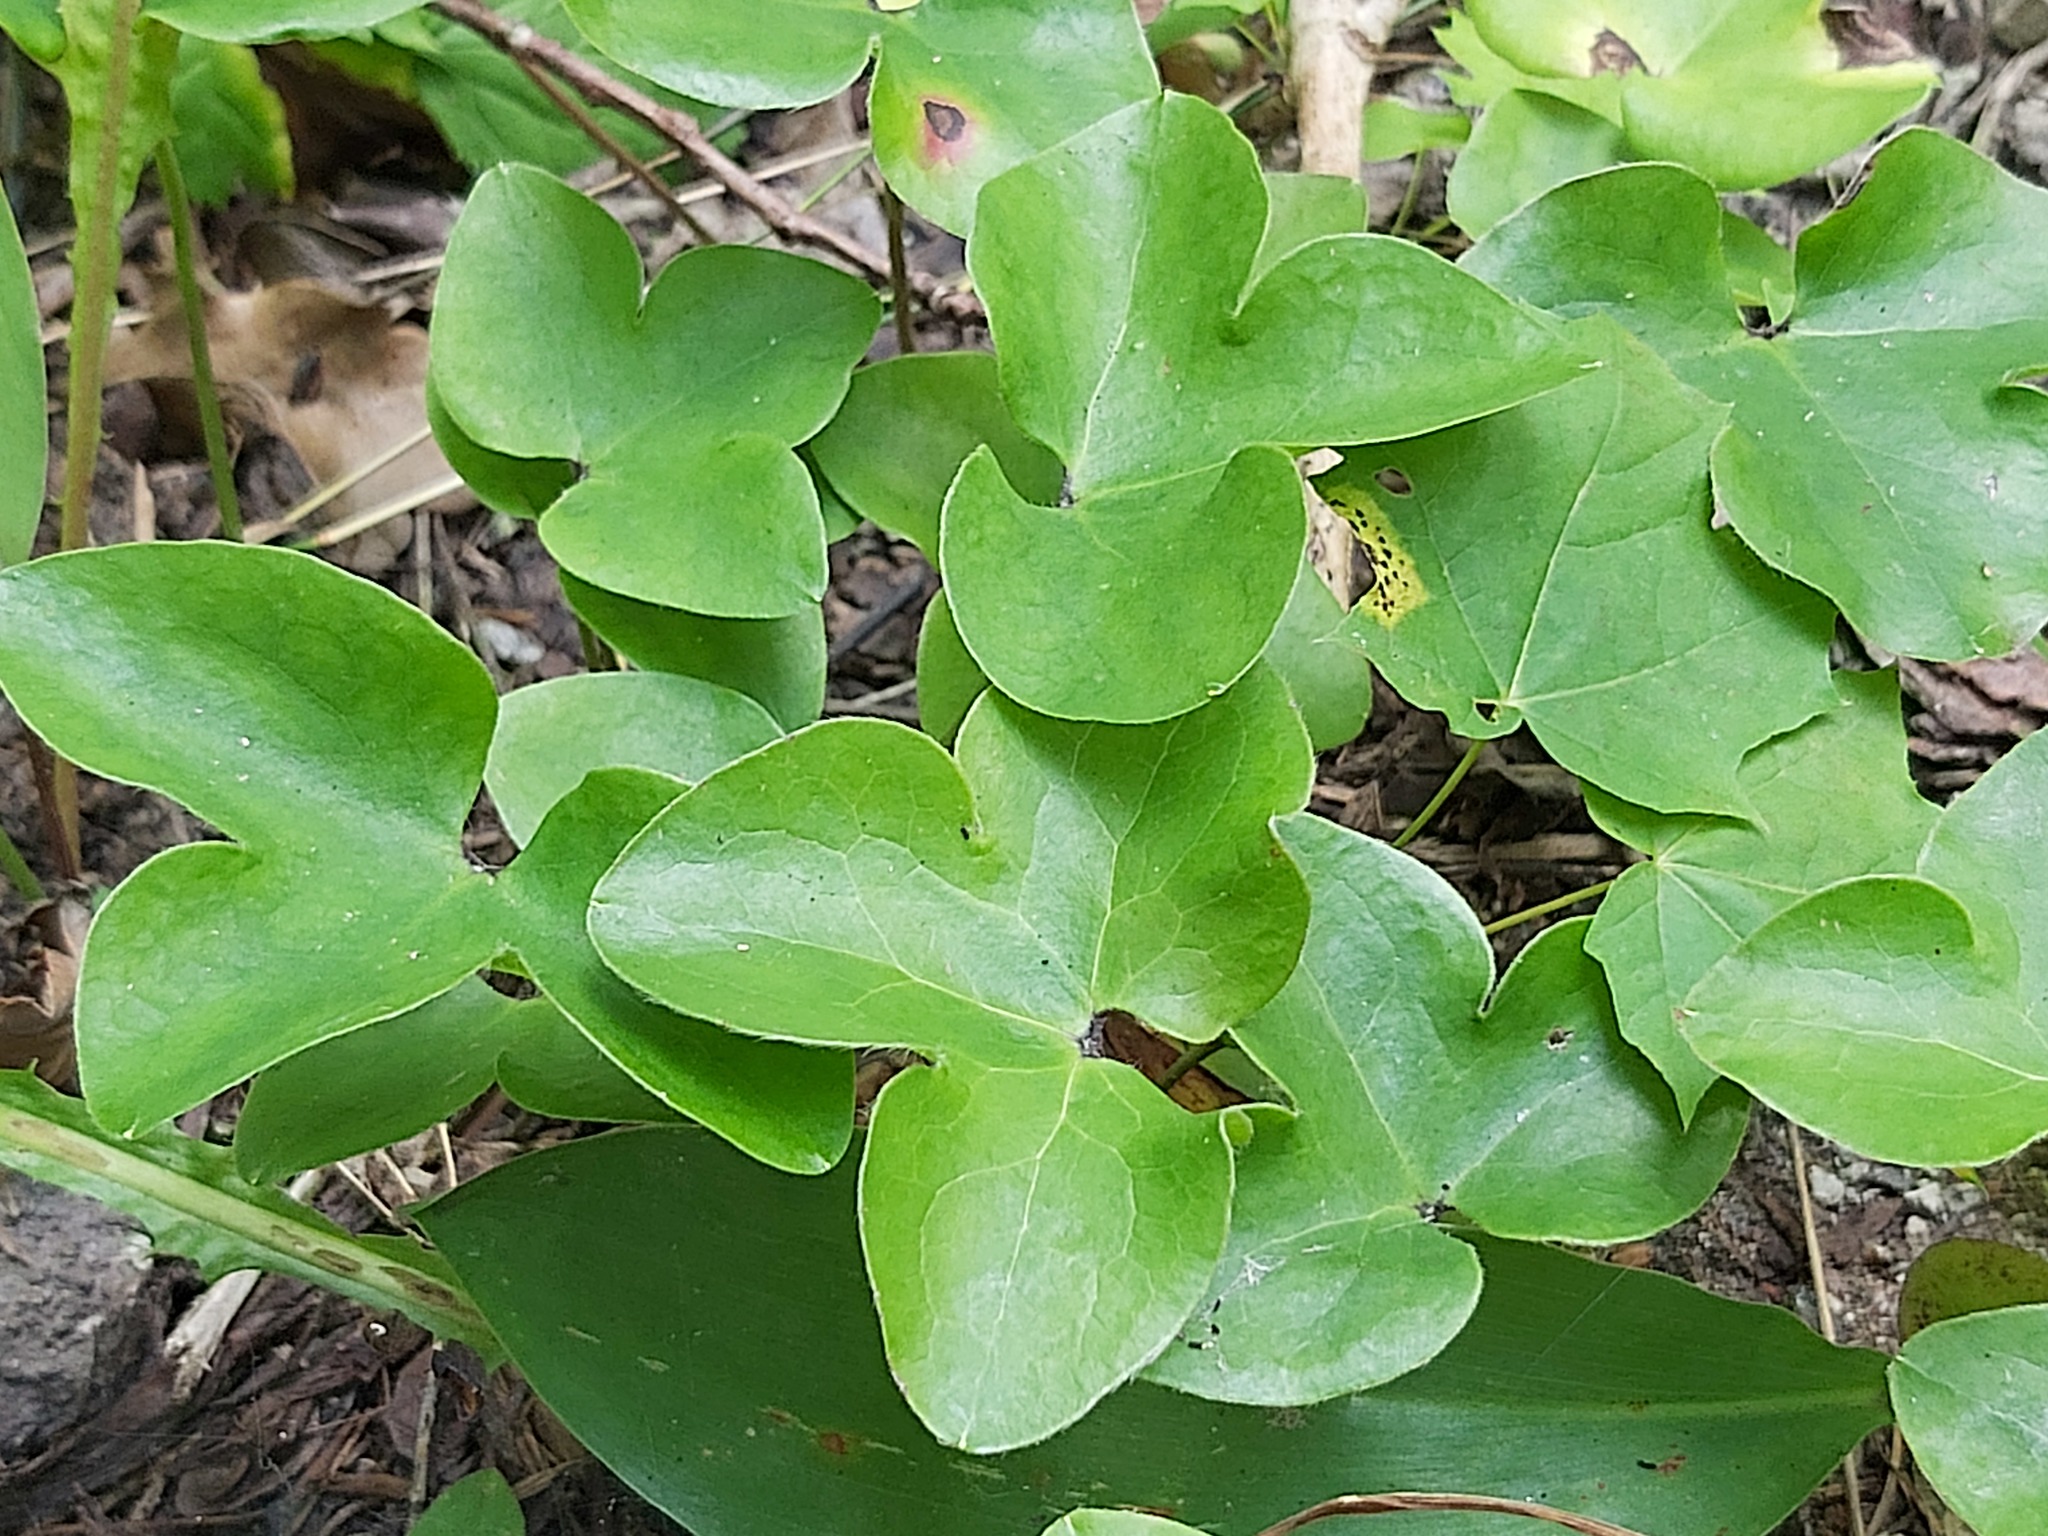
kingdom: Plantae
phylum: Tracheophyta
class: Magnoliopsida
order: Ranunculales
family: Ranunculaceae
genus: Hepatica
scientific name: Hepatica nobilis
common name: Liverleaf
